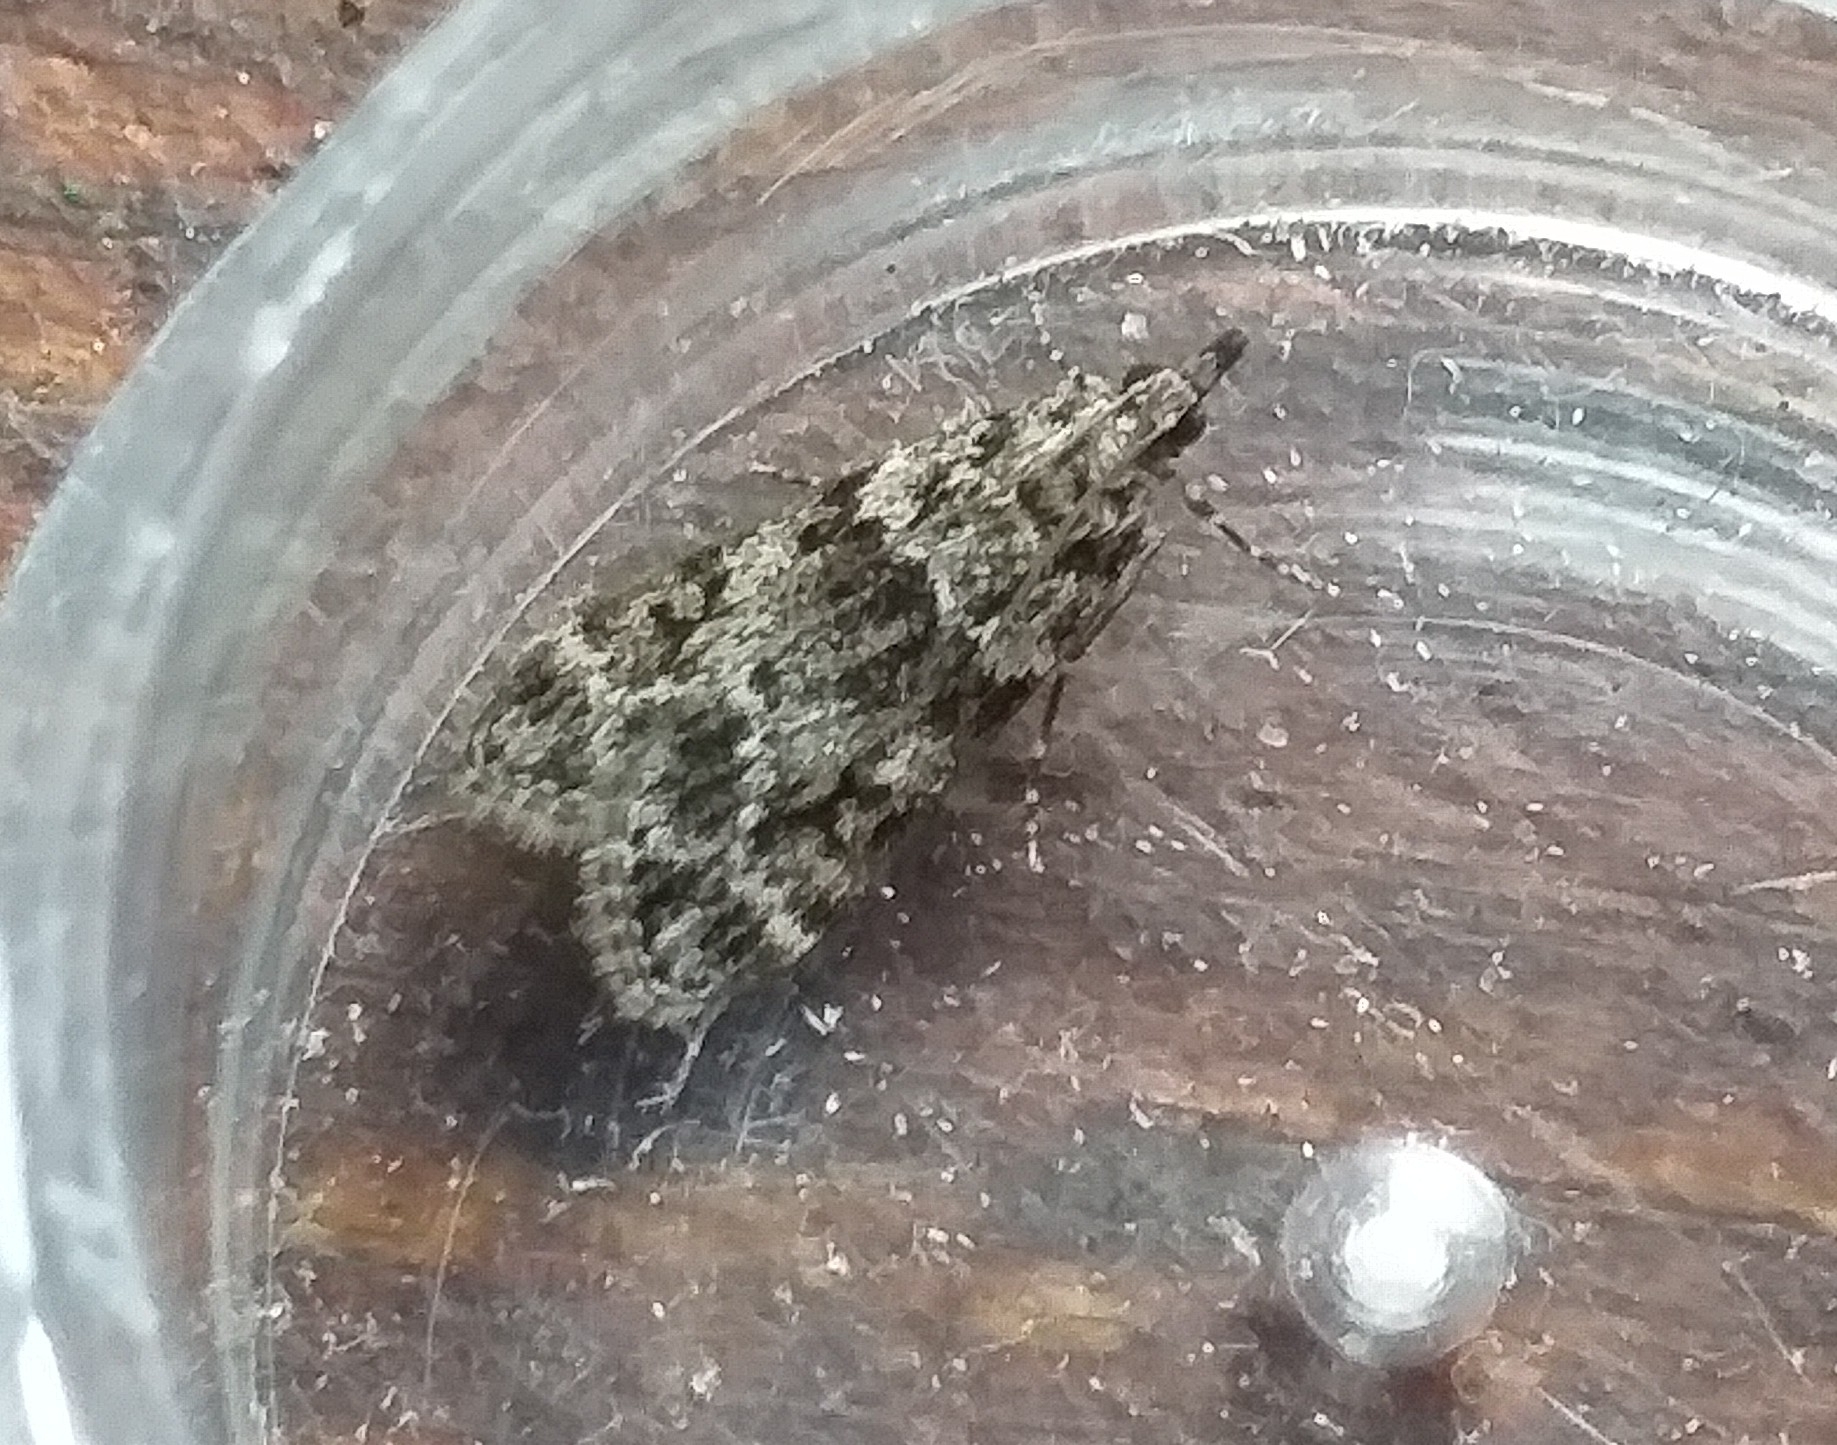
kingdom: Animalia
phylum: Arthropoda
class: Insecta
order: Lepidoptera
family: Crambidae
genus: Eudonia
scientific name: Eudonia mercurella
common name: Small grey
